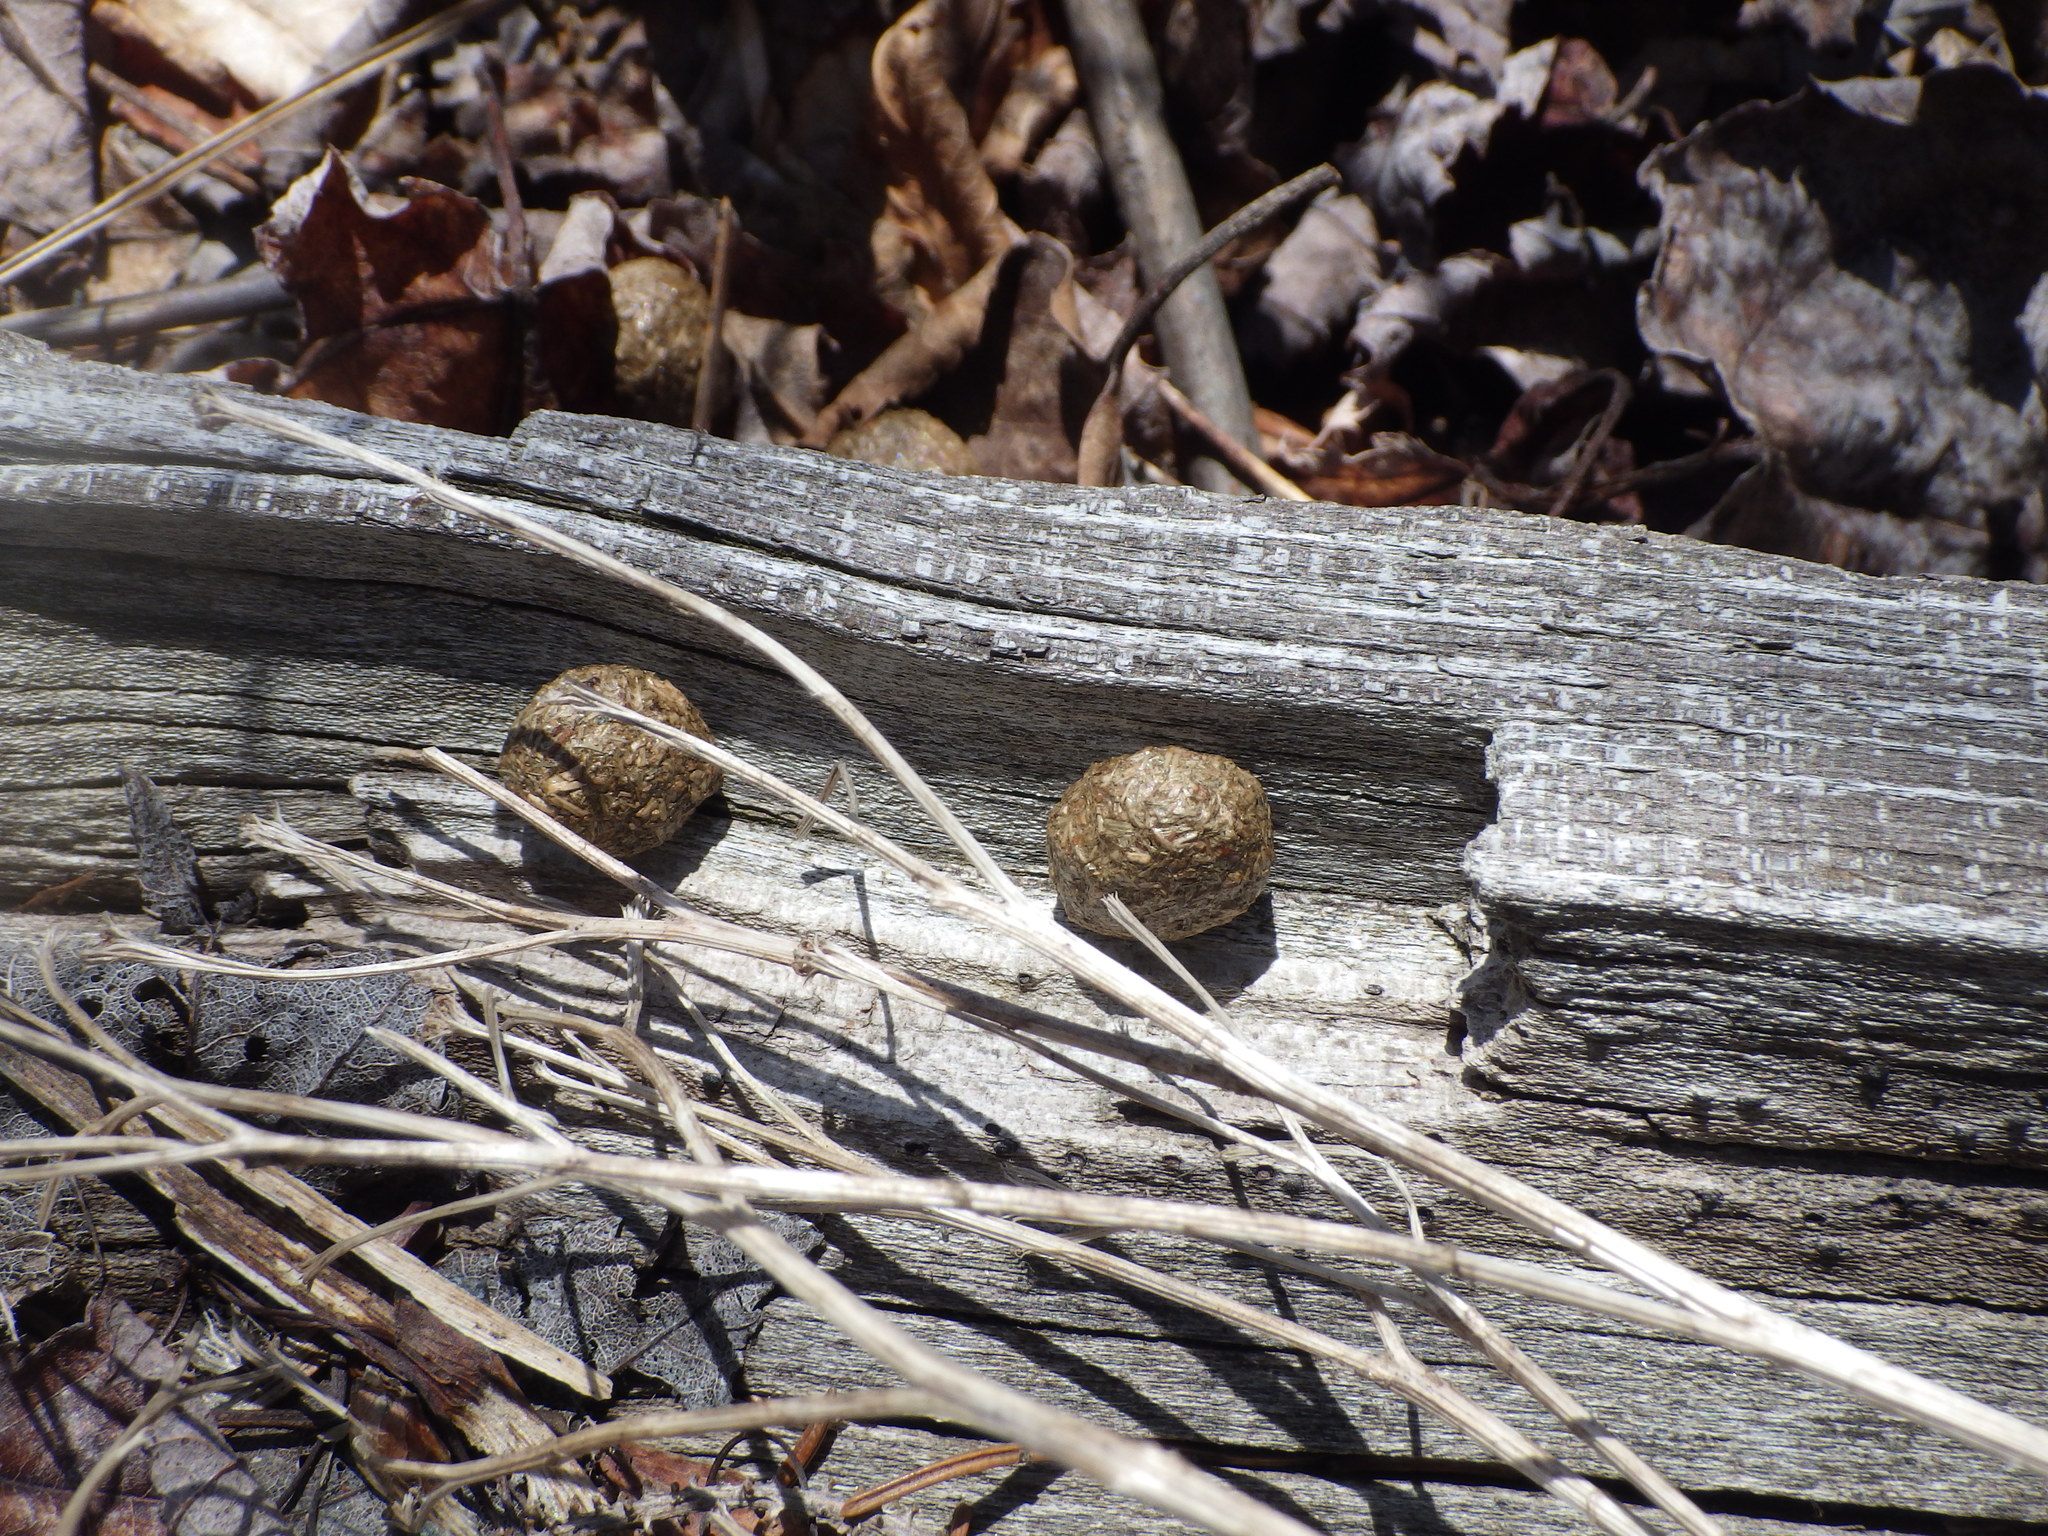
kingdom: Animalia
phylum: Chordata
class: Mammalia
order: Lagomorpha
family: Leporidae
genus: Lepus
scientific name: Lepus americanus
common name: Snowshoe hare
